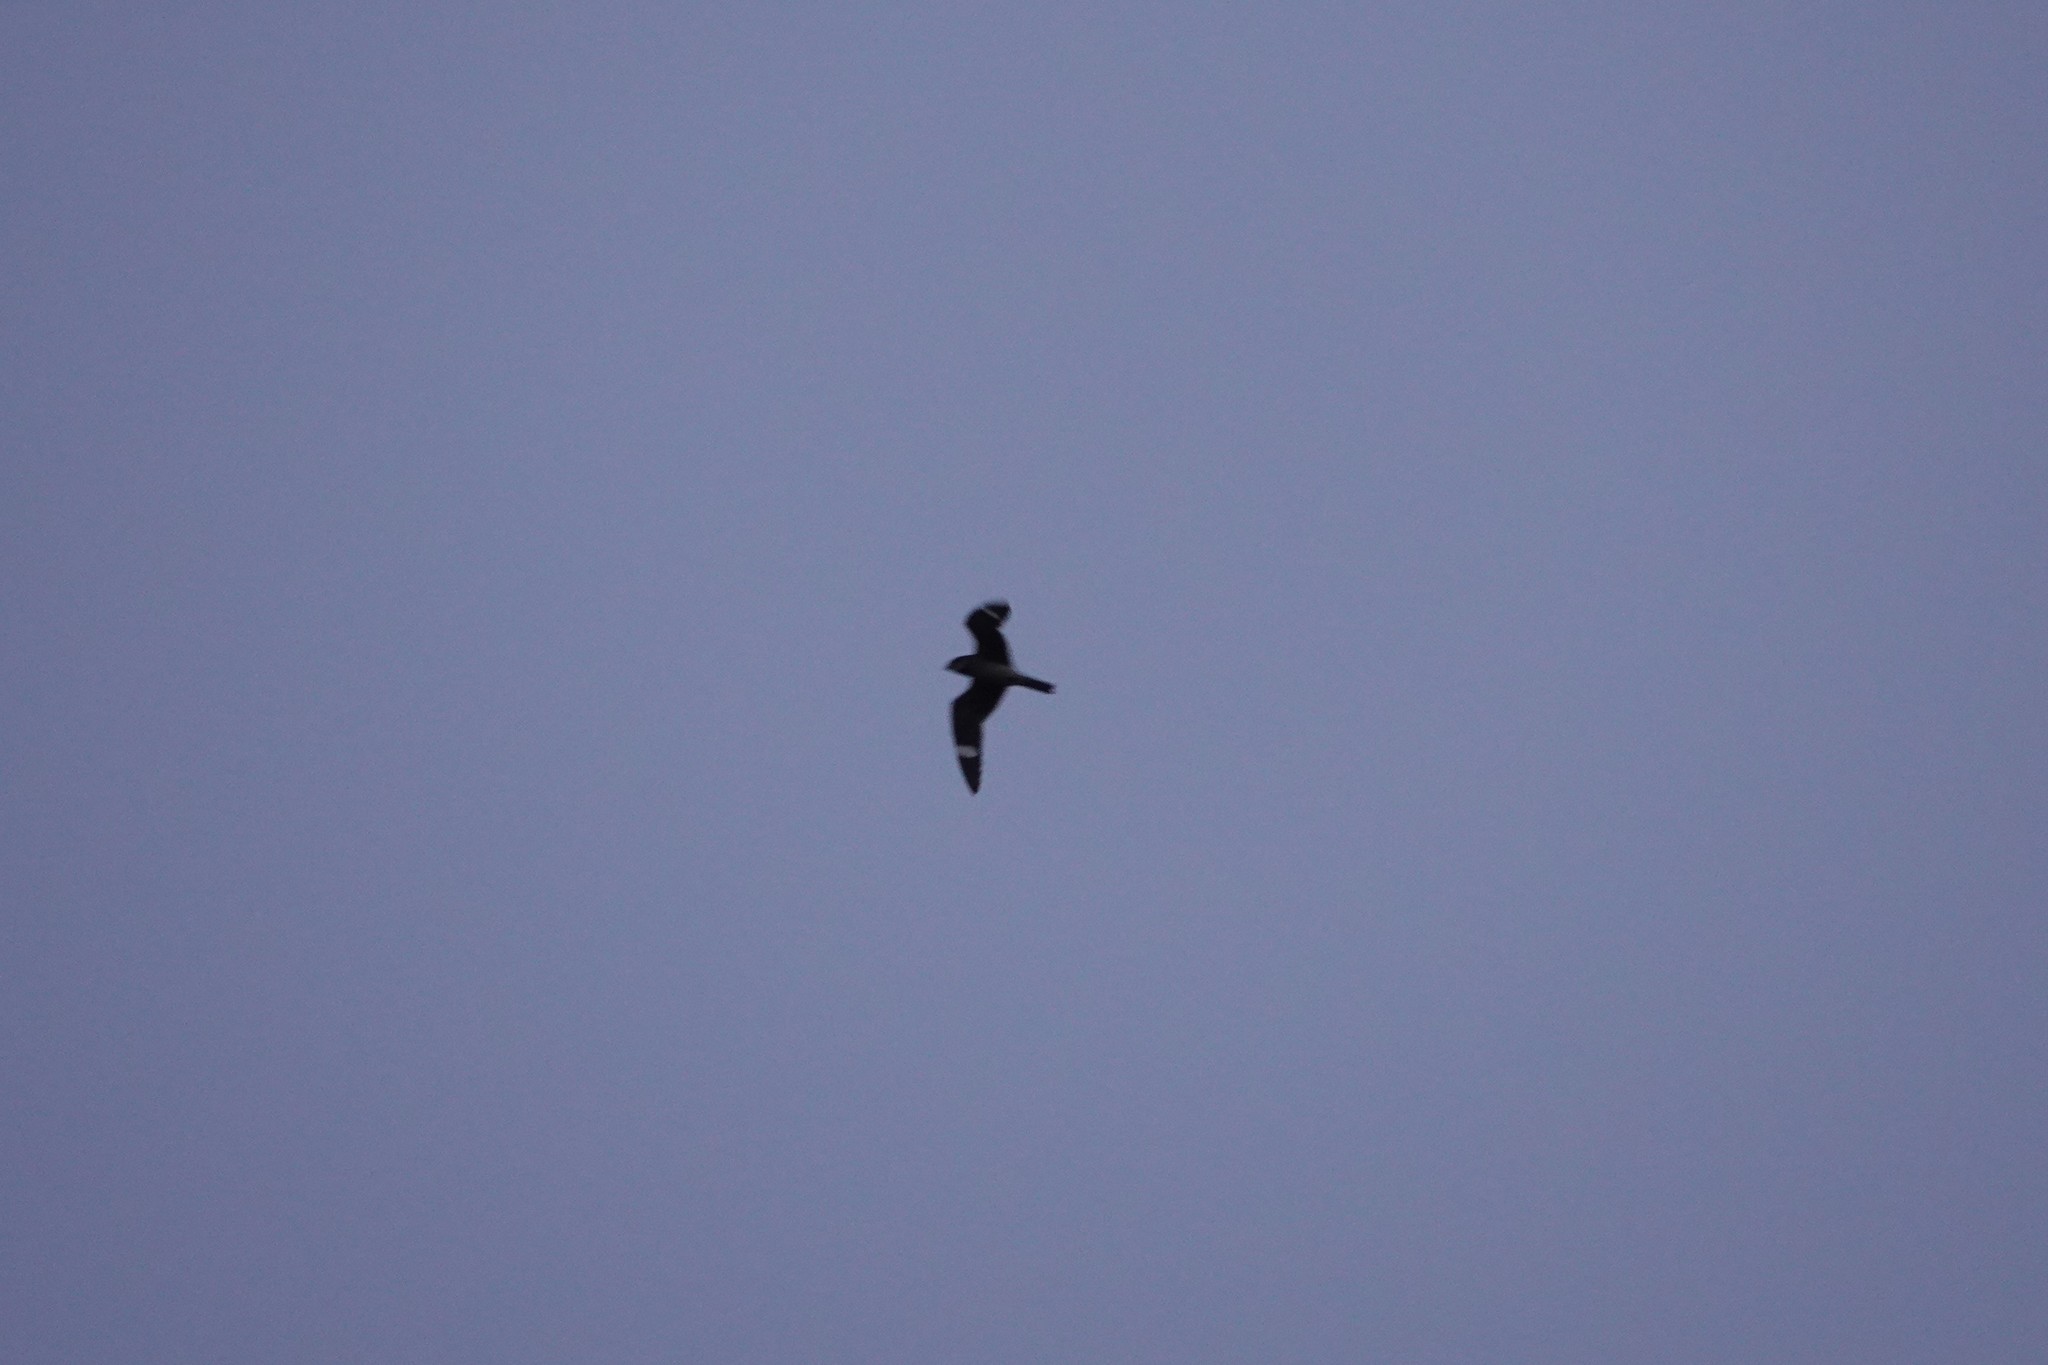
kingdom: Animalia
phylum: Chordata
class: Aves
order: Caprimulgiformes
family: Caprimulgidae
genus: Chordeiles
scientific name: Chordeiles minor
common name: Common nighthawk
